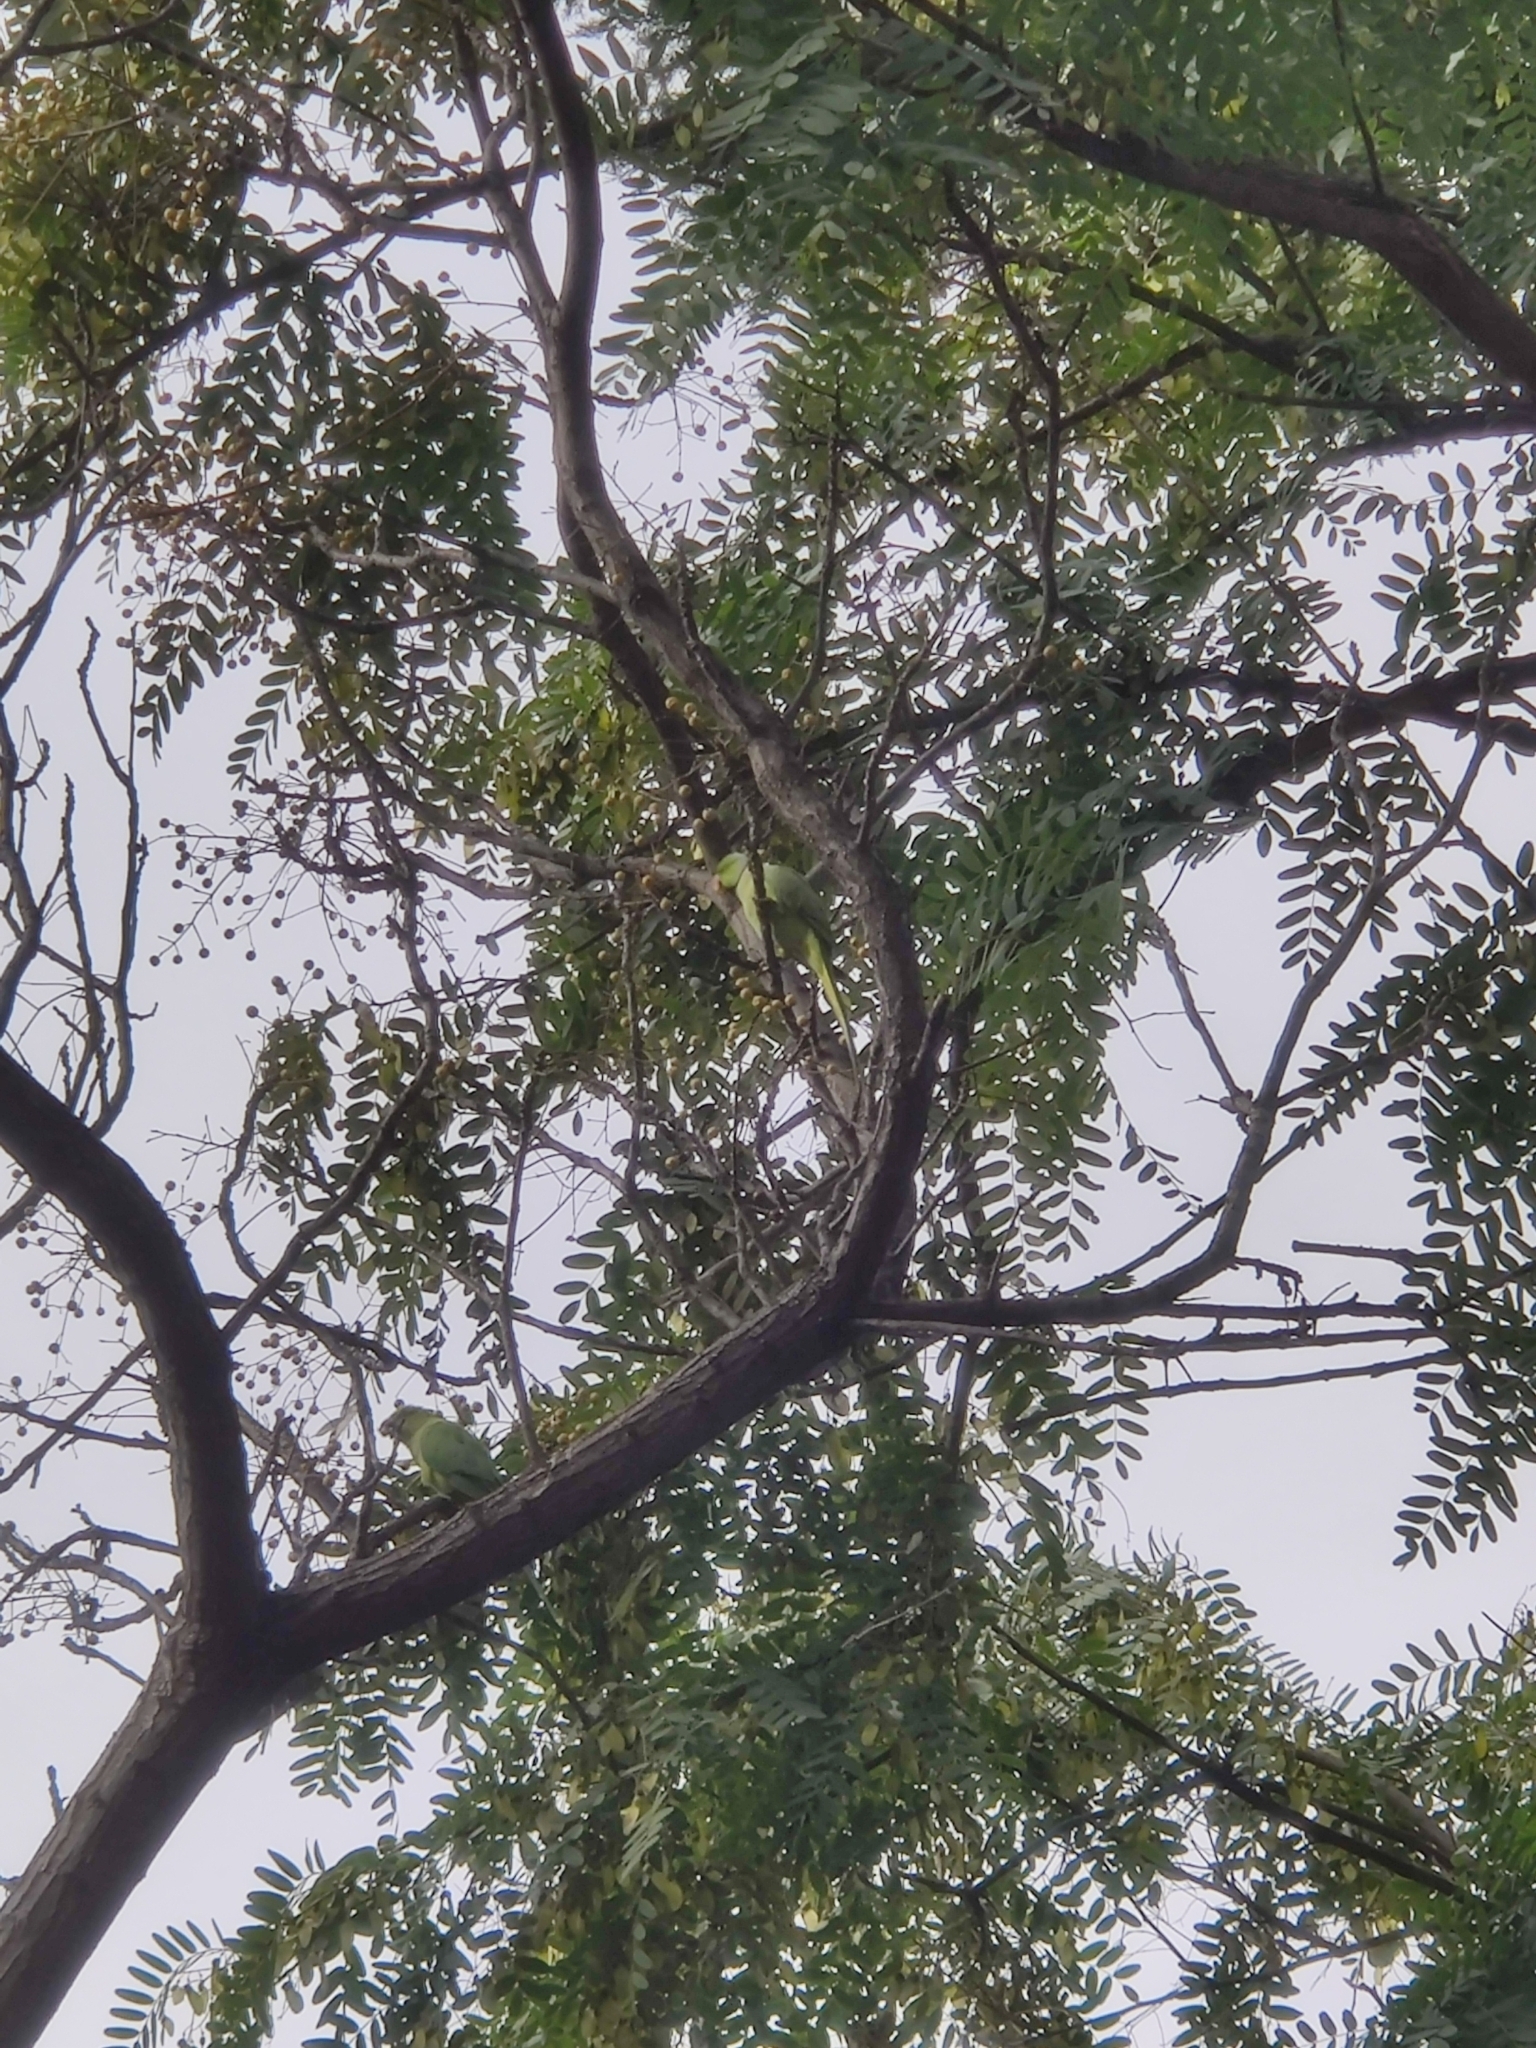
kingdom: Animalia
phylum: Chordata
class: Aves
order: Psittaciformes
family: Psittacidae
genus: Psittacula
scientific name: Psittacula krameri
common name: Rose-ringed parakeet
